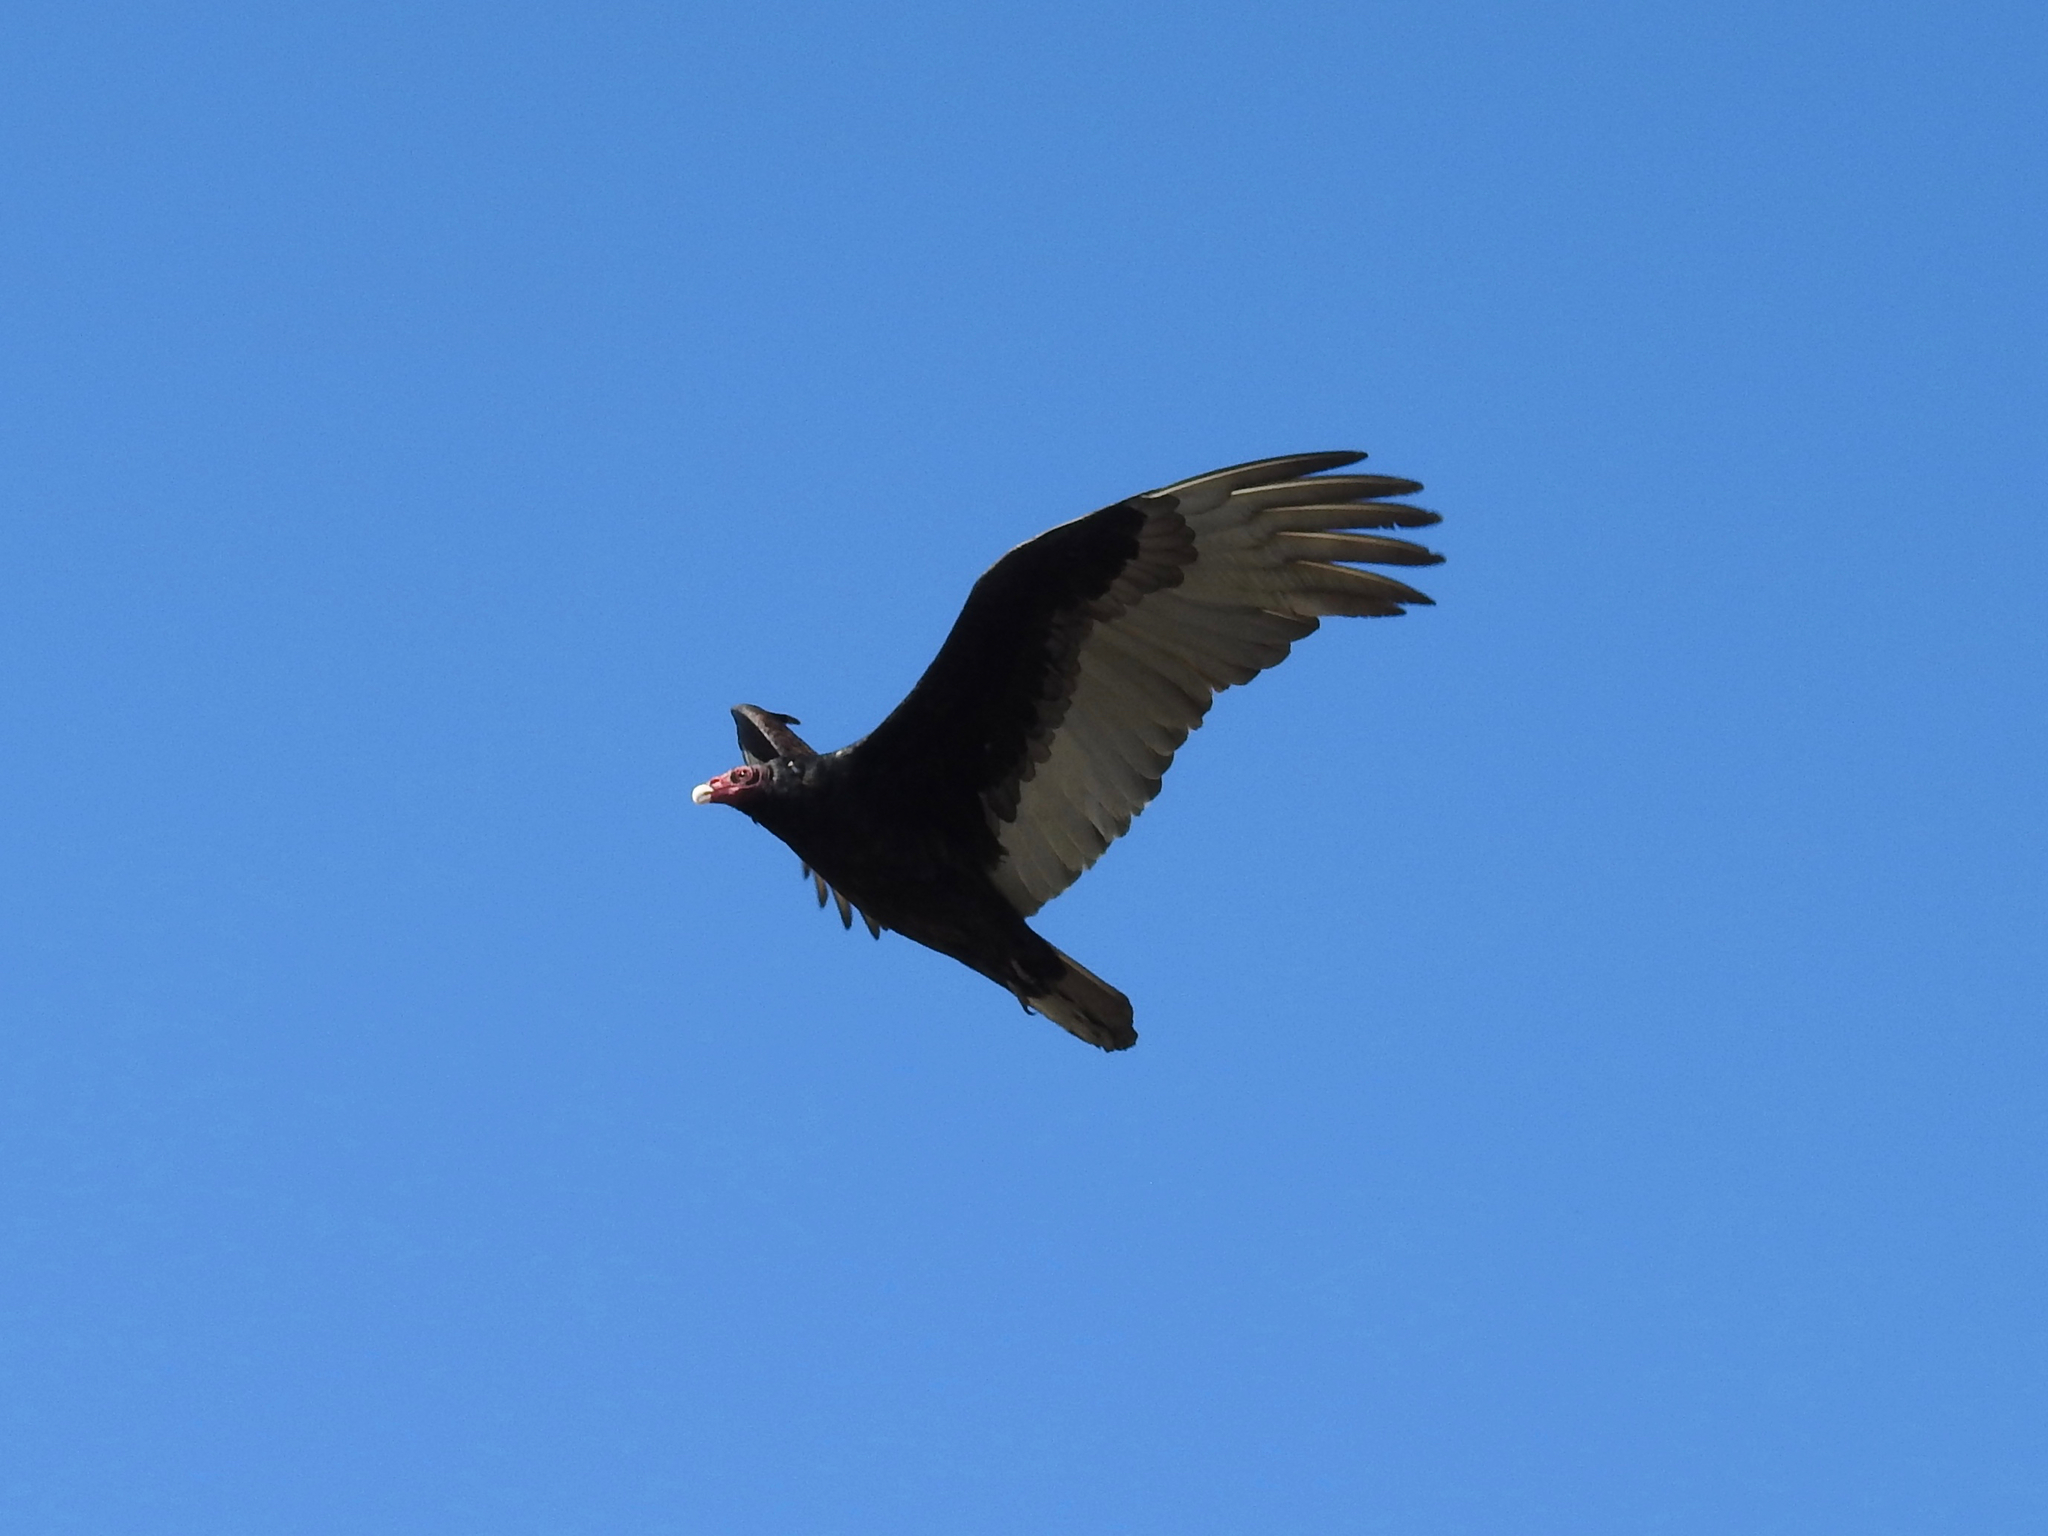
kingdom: Animalia
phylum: Chordata
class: Aves
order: Accipitriformes
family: Cathartidae
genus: Cathartes
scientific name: Cathartes aura
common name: Turkey vulture
